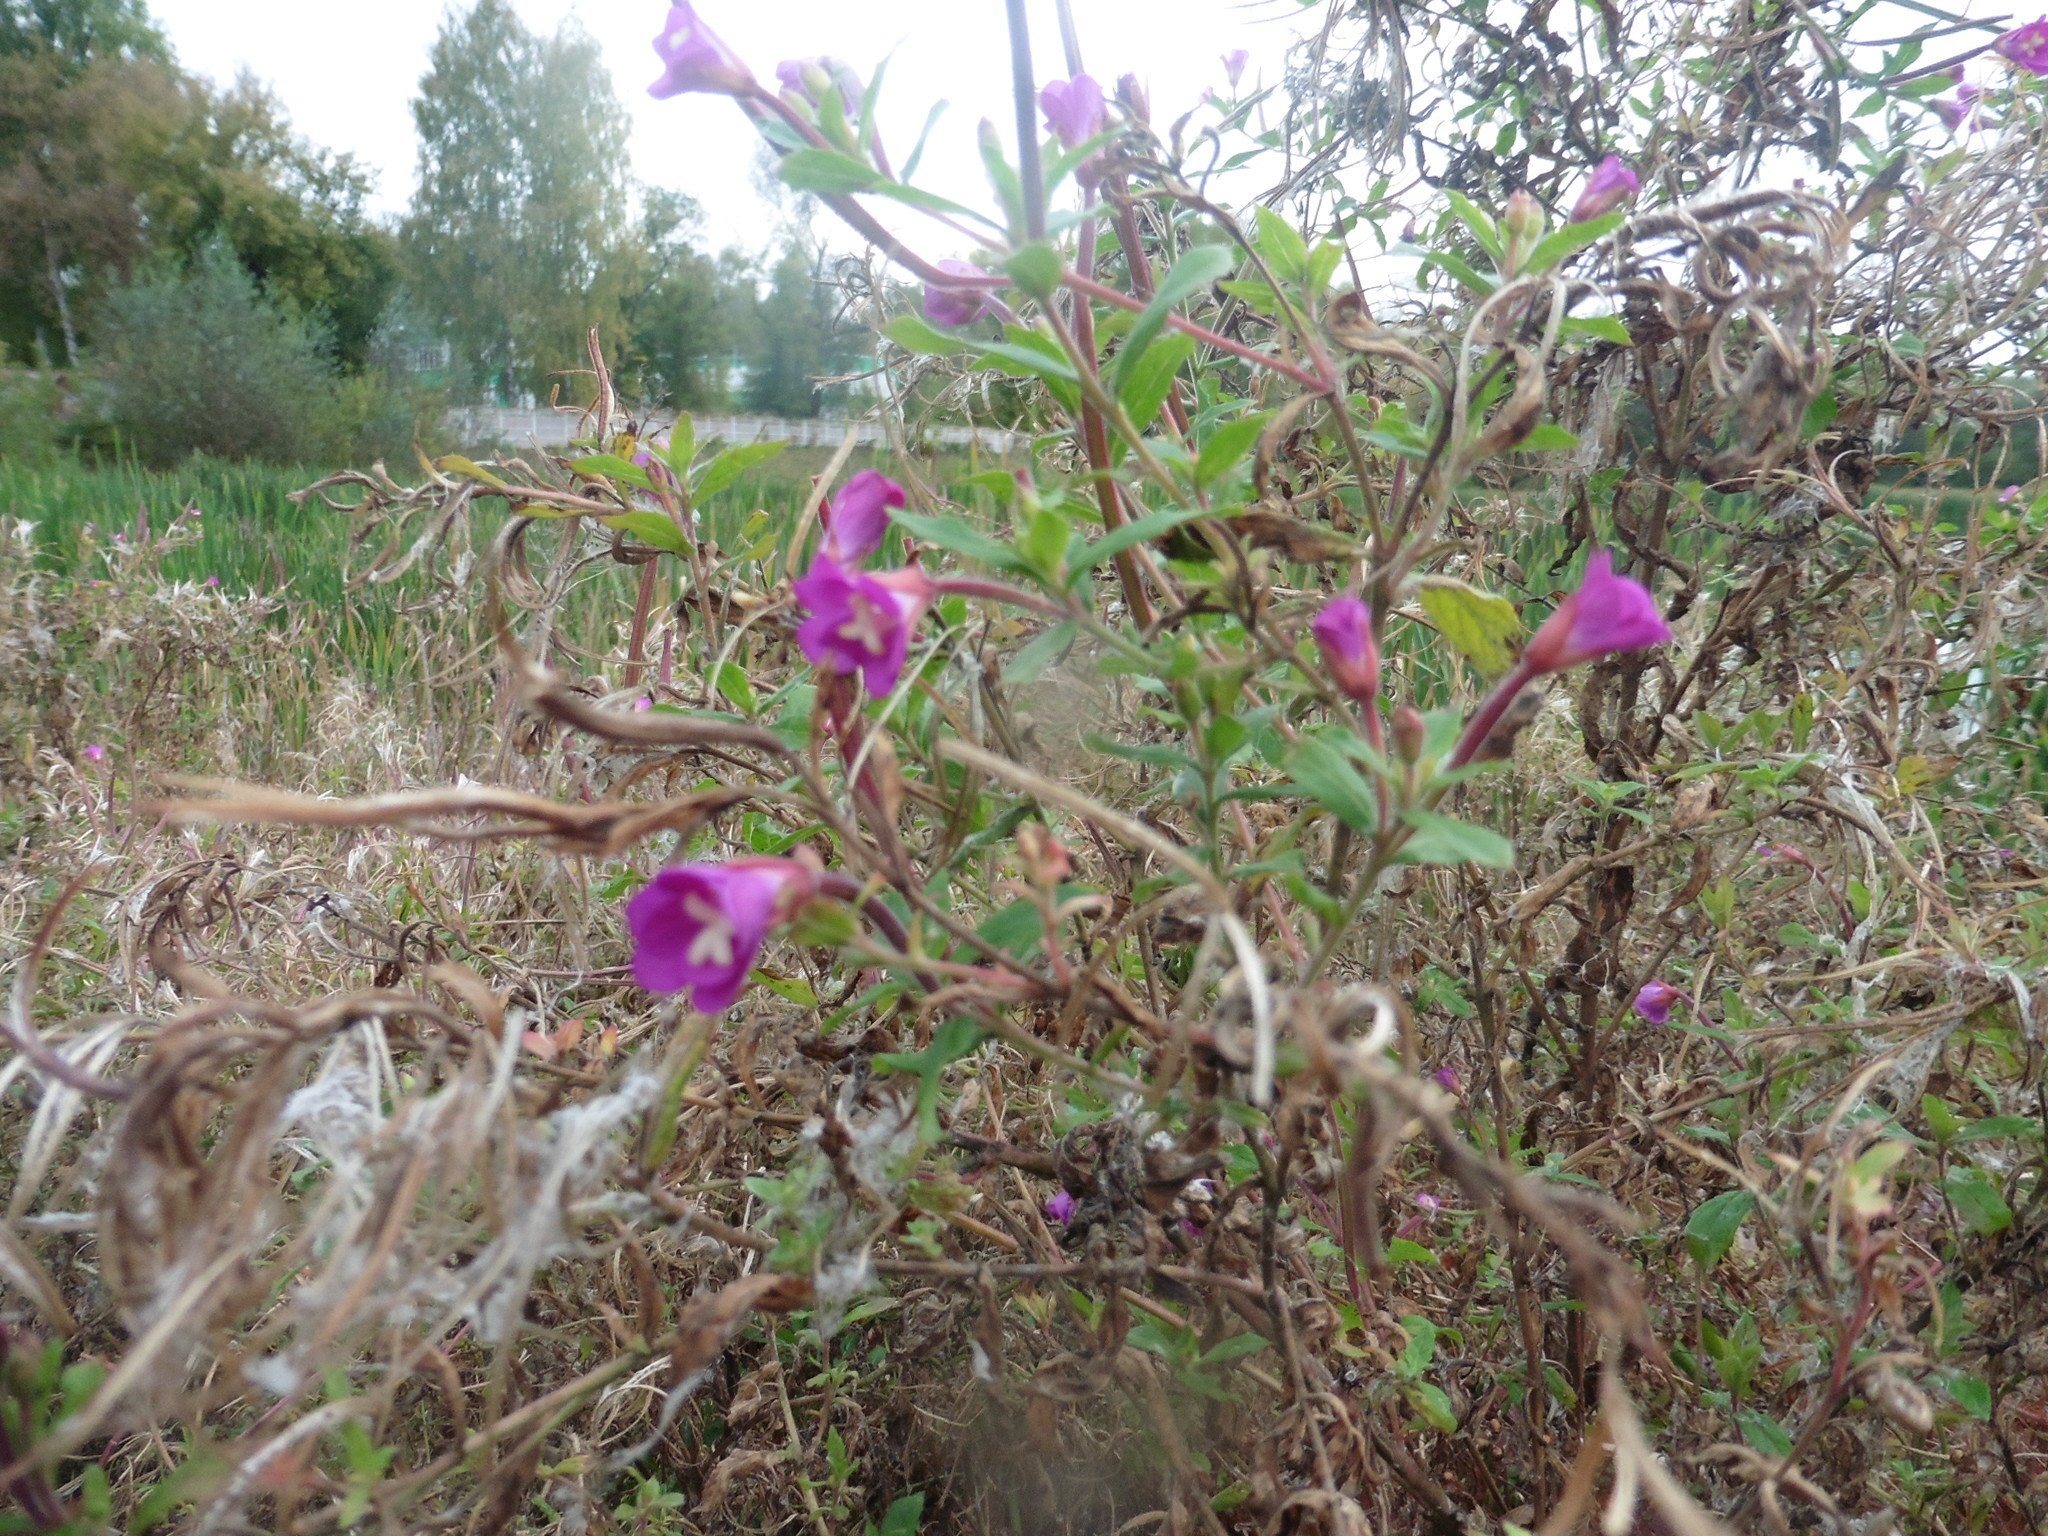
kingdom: Plantae
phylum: Tracheophyta
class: Magnoliopsida
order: Myrtales
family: Onagraceae
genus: Epilobium
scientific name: Epilobium hirsutum
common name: Great willowherb
